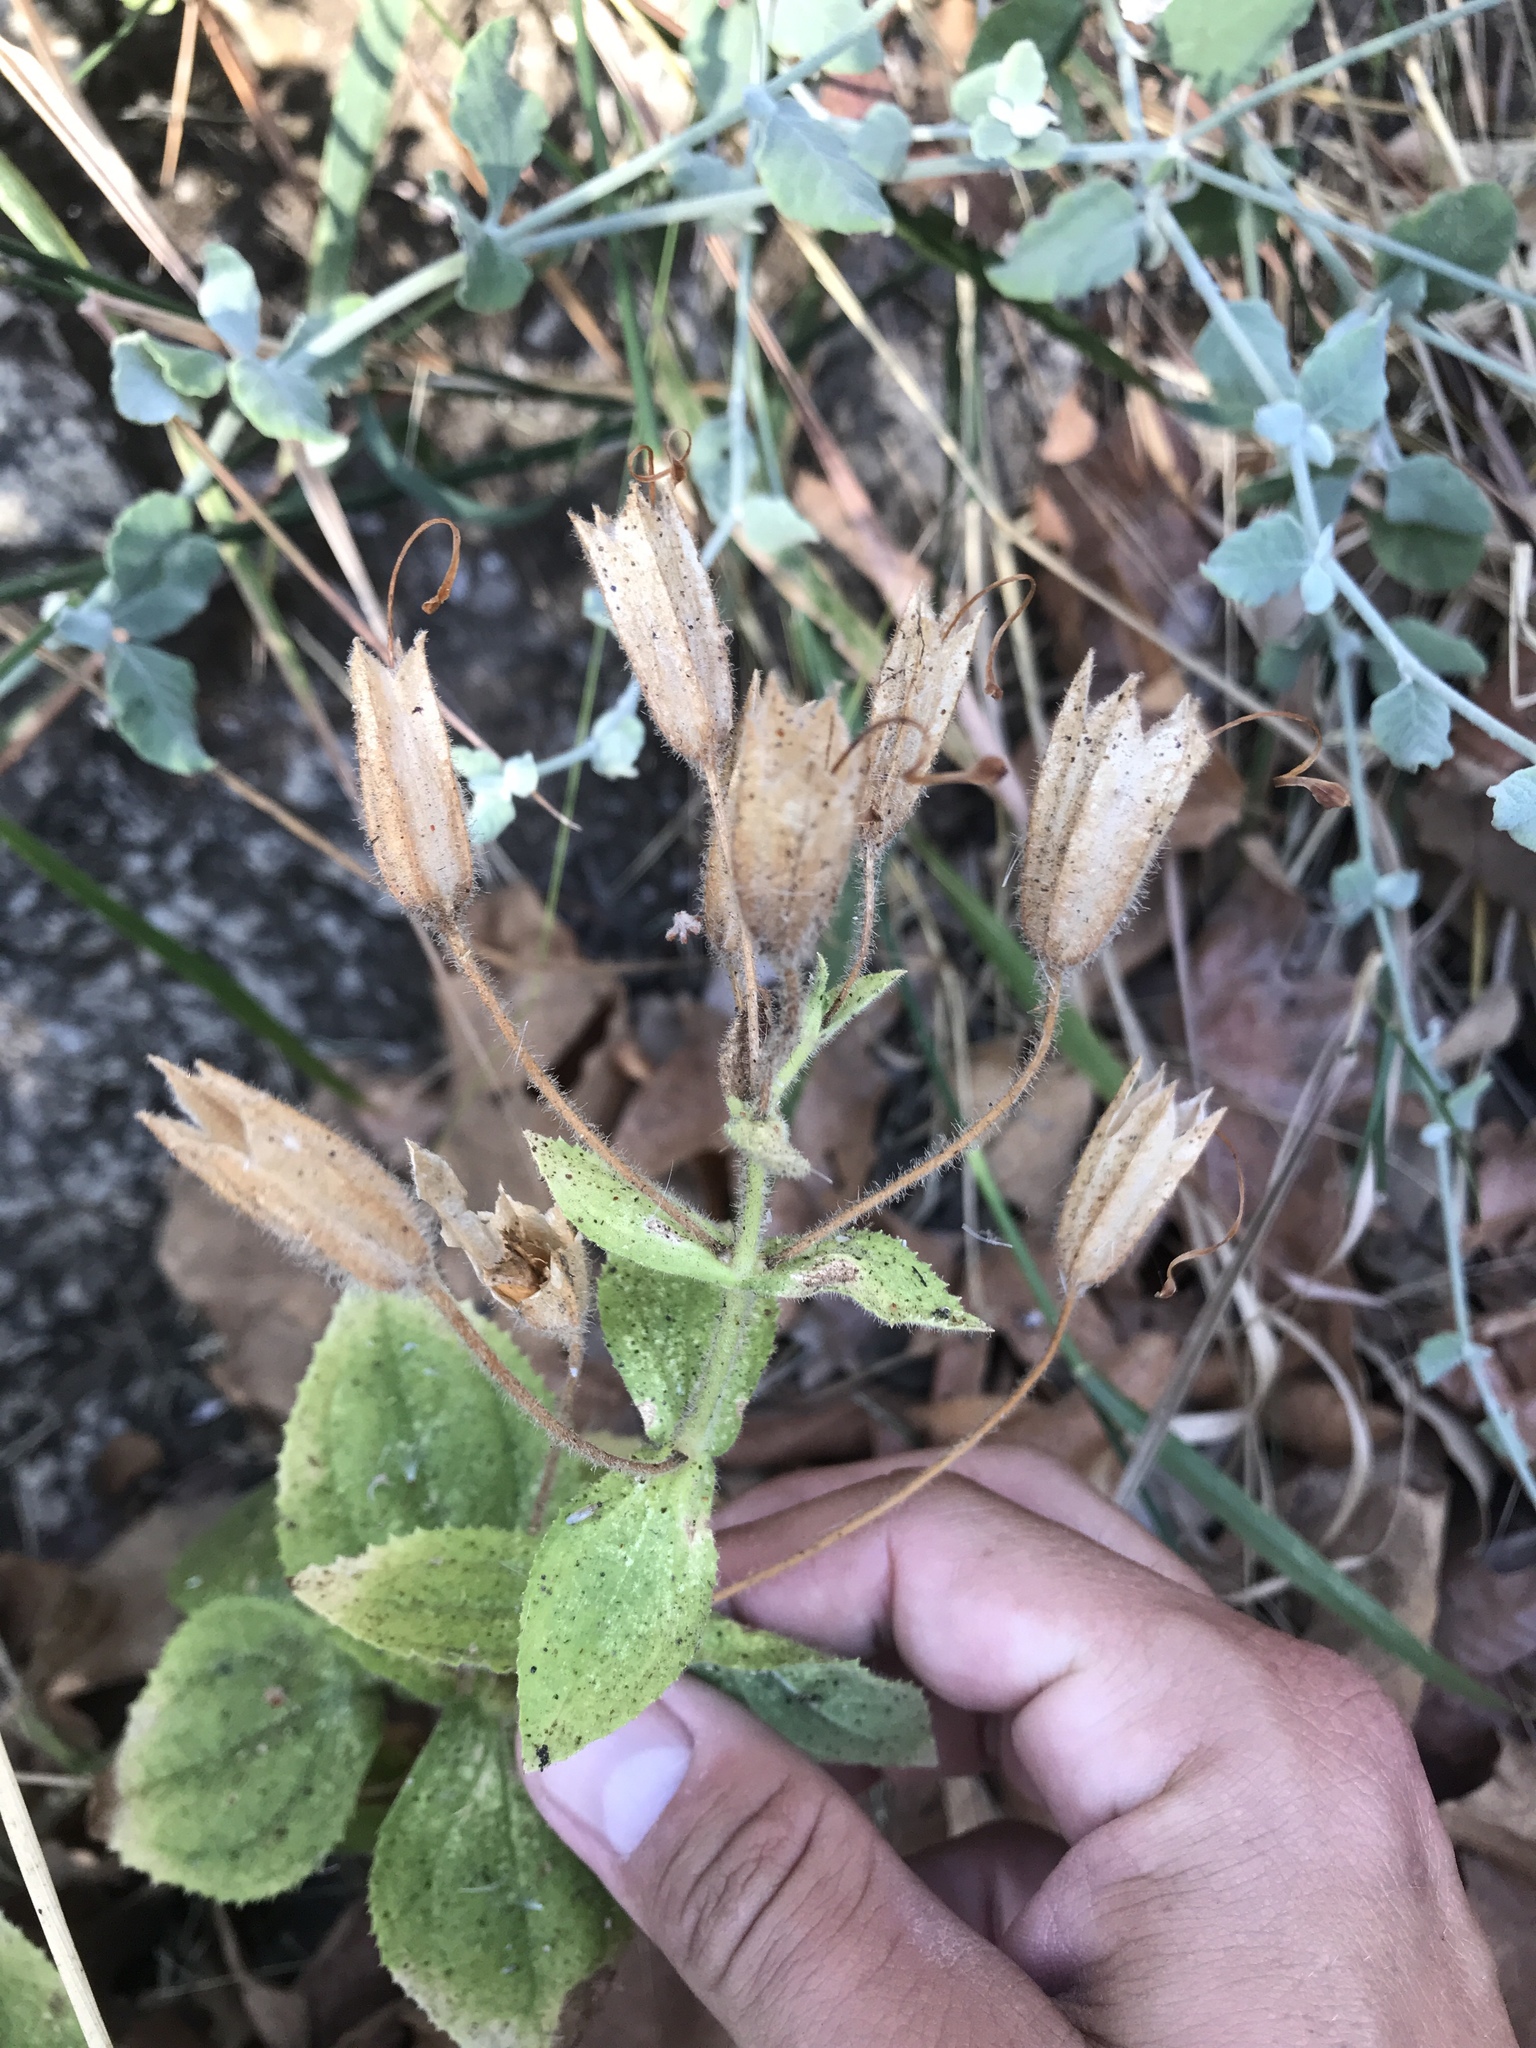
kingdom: Plantae
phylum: Tracheophyta
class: Magnoliopsida
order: Lamiales
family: Phrymaceae
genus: Erythranthe
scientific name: Erythranthe cardinalis
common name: Scarlet monkey-flower
